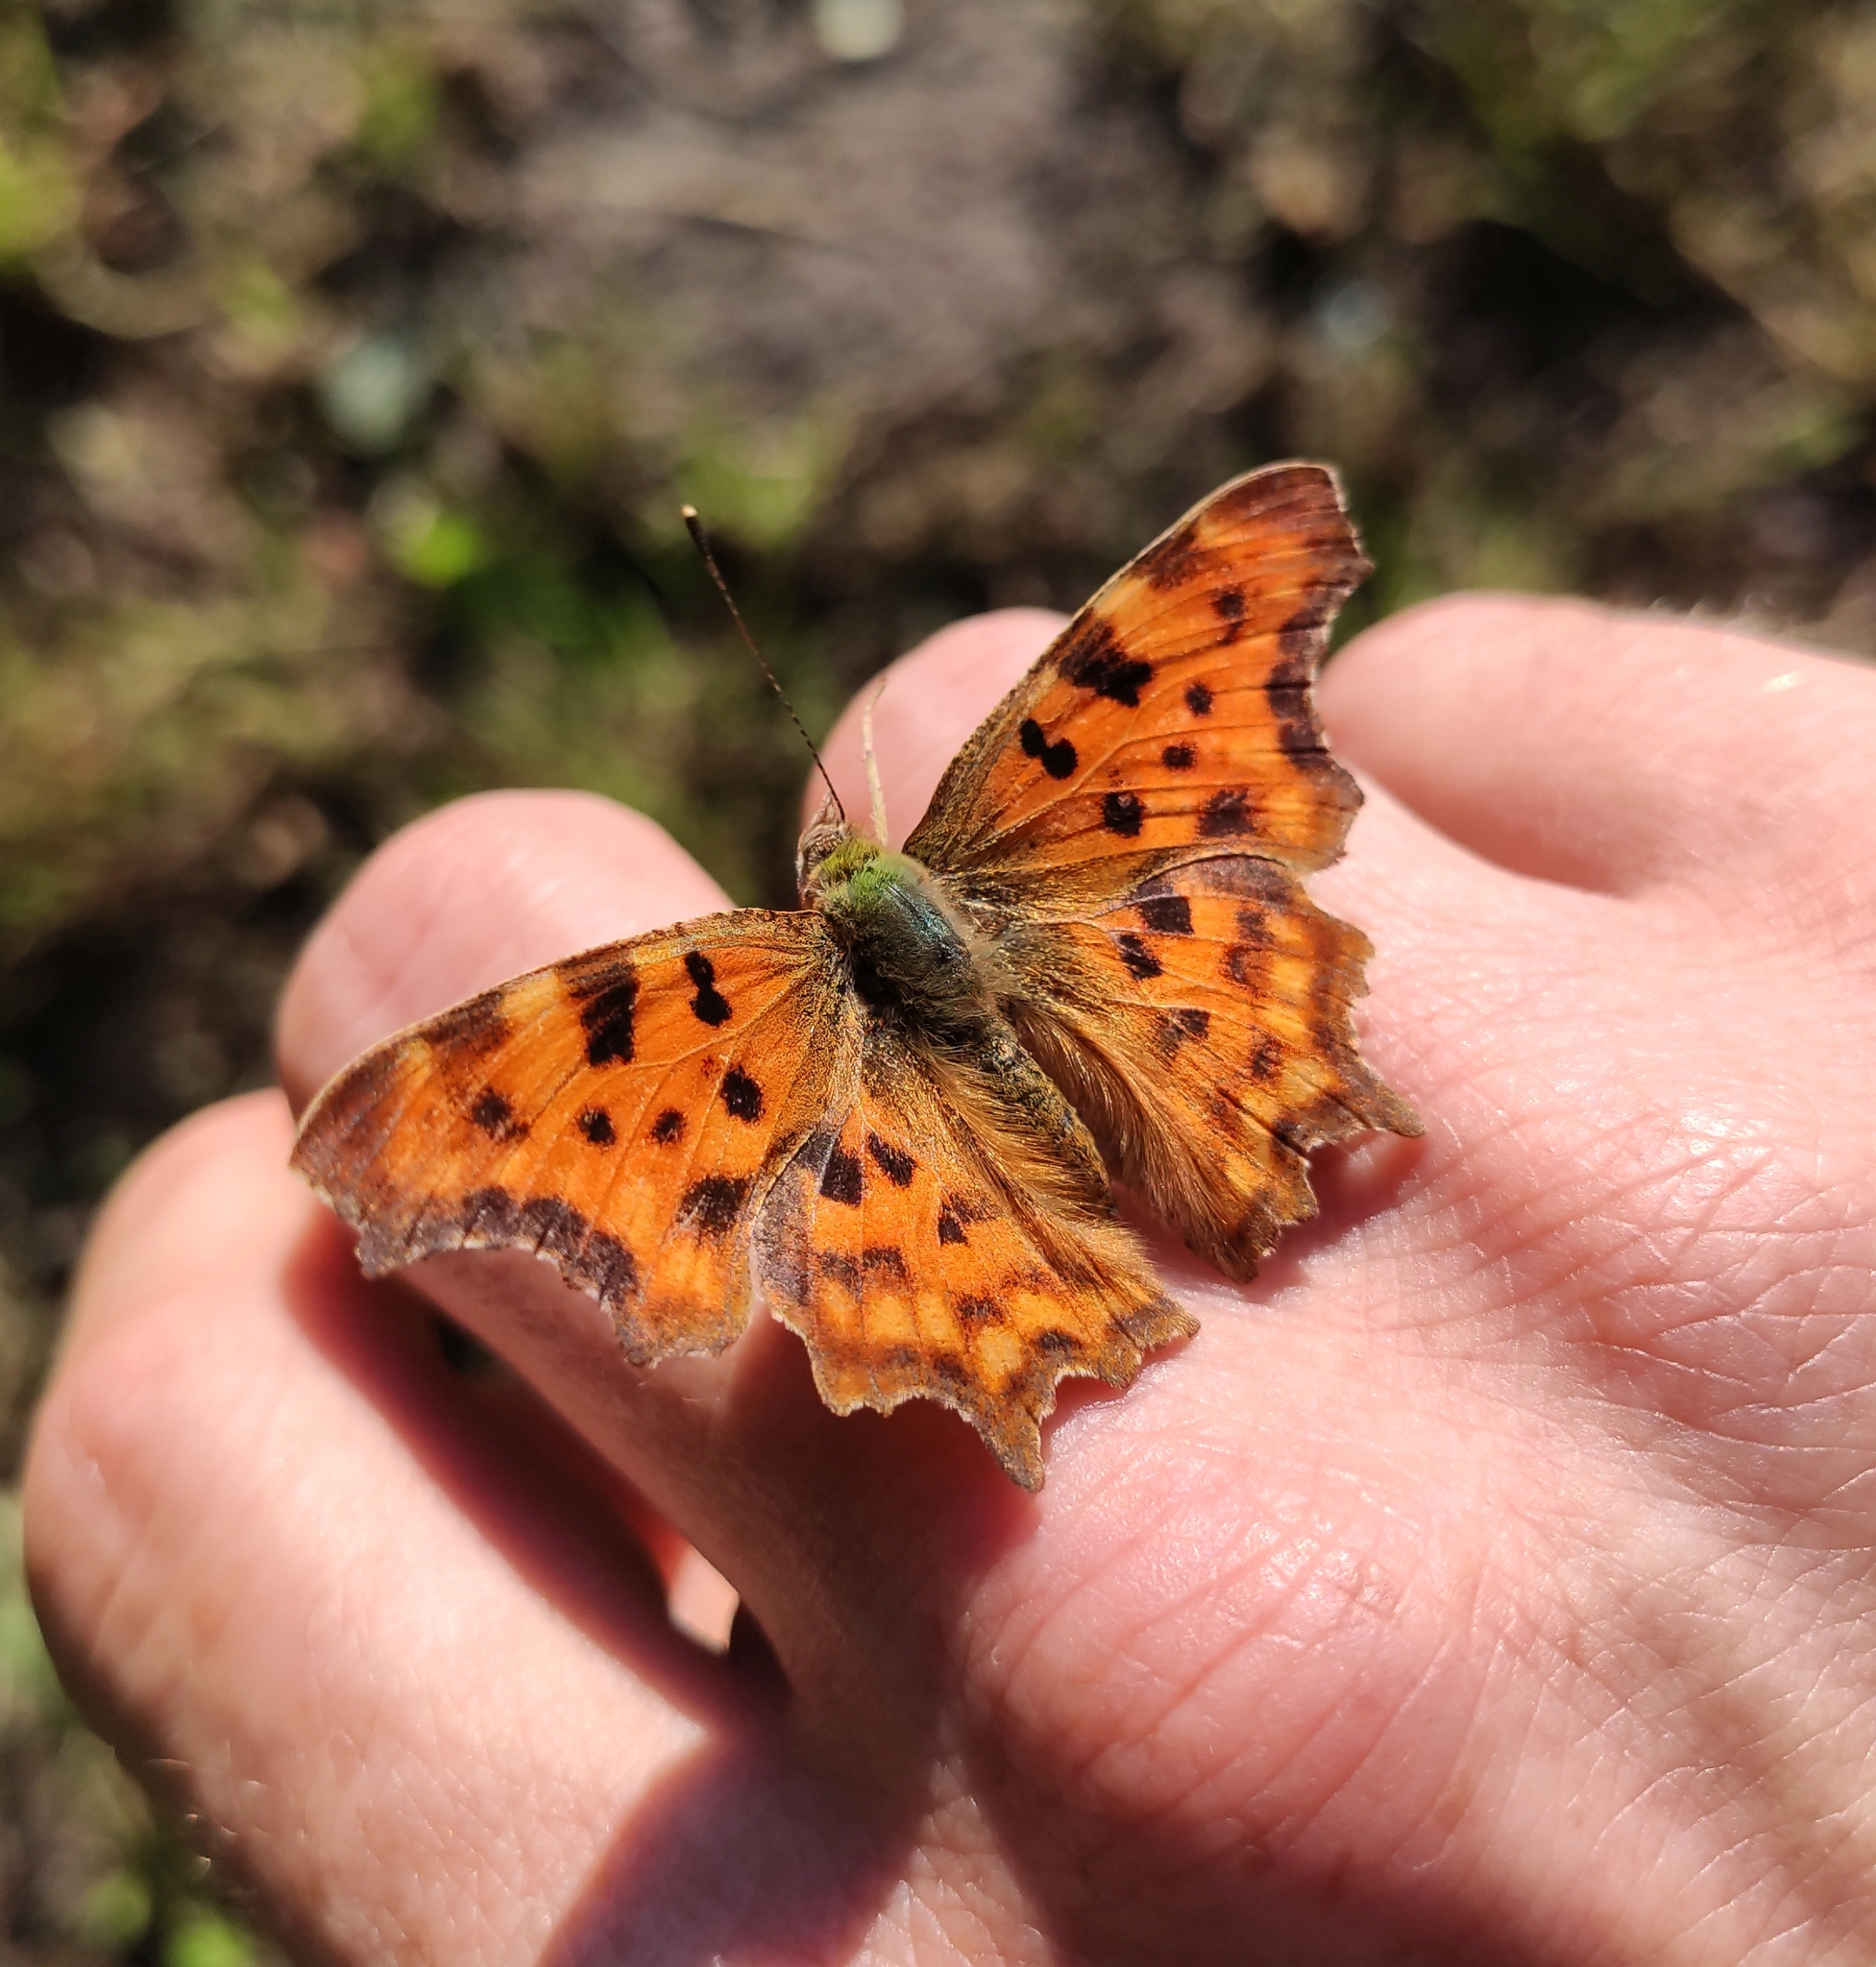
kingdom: Animalia
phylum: Arthropoda
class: Insecta
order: Lepidoptera
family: Nymphalidae
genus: Polygonia
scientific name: Polygonia c-album
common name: Comma
